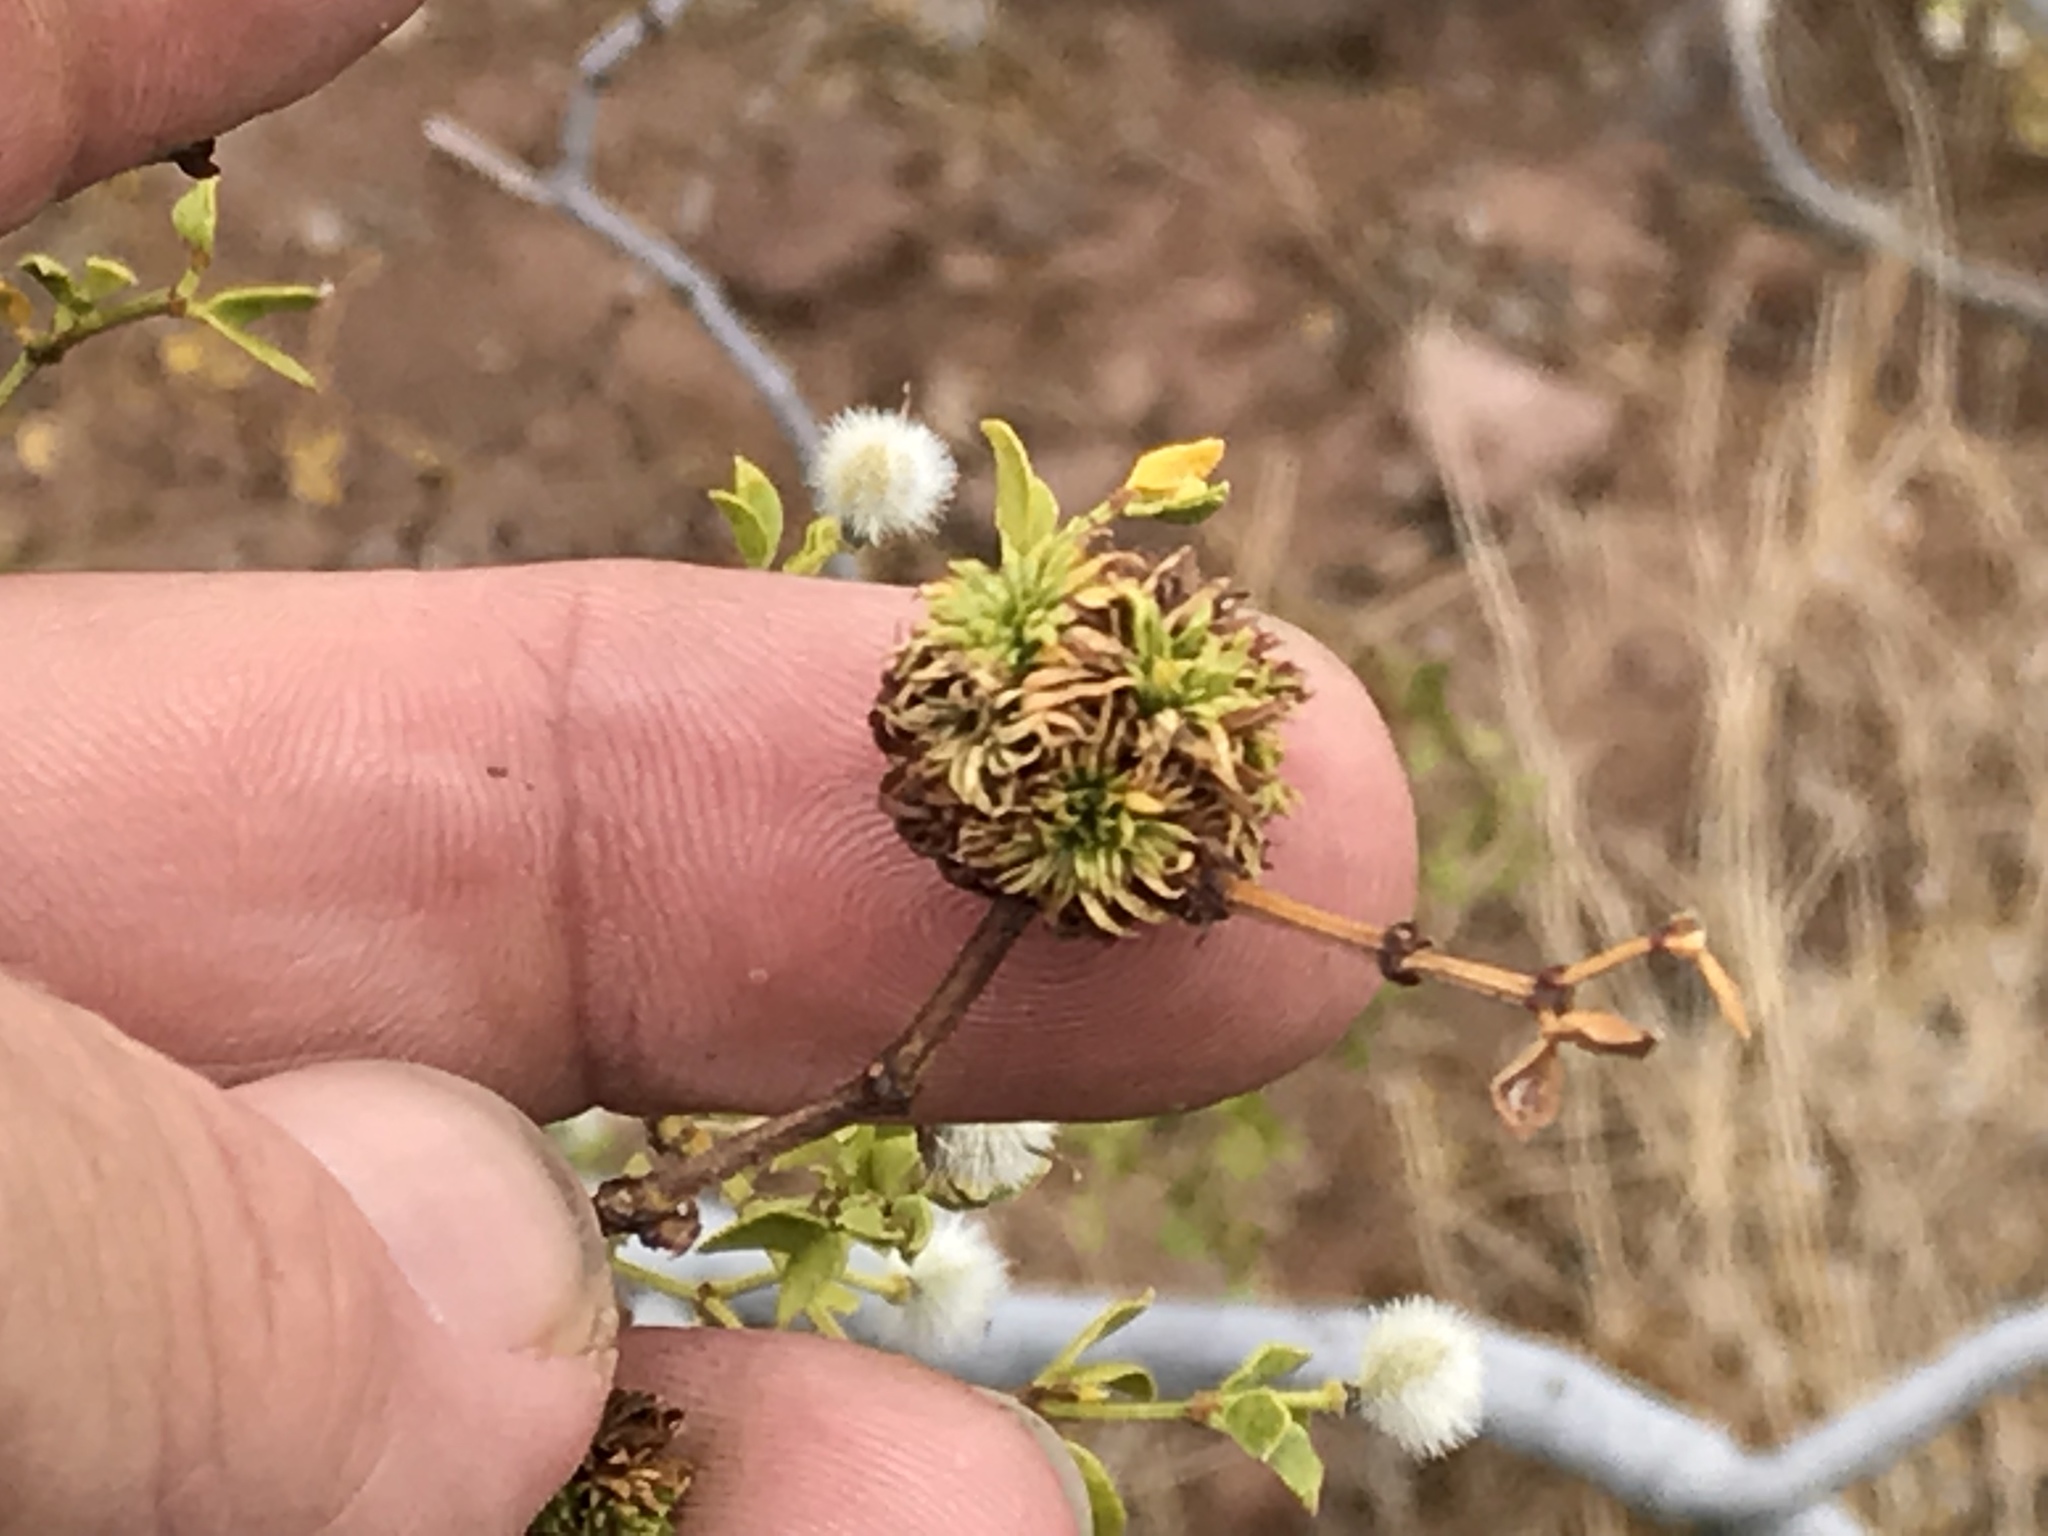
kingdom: Animalia
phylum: Arthropoda
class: Insecta
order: Diptera
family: Cecidomyiidae
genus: Asphondylia
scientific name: Asphondylia auripila
